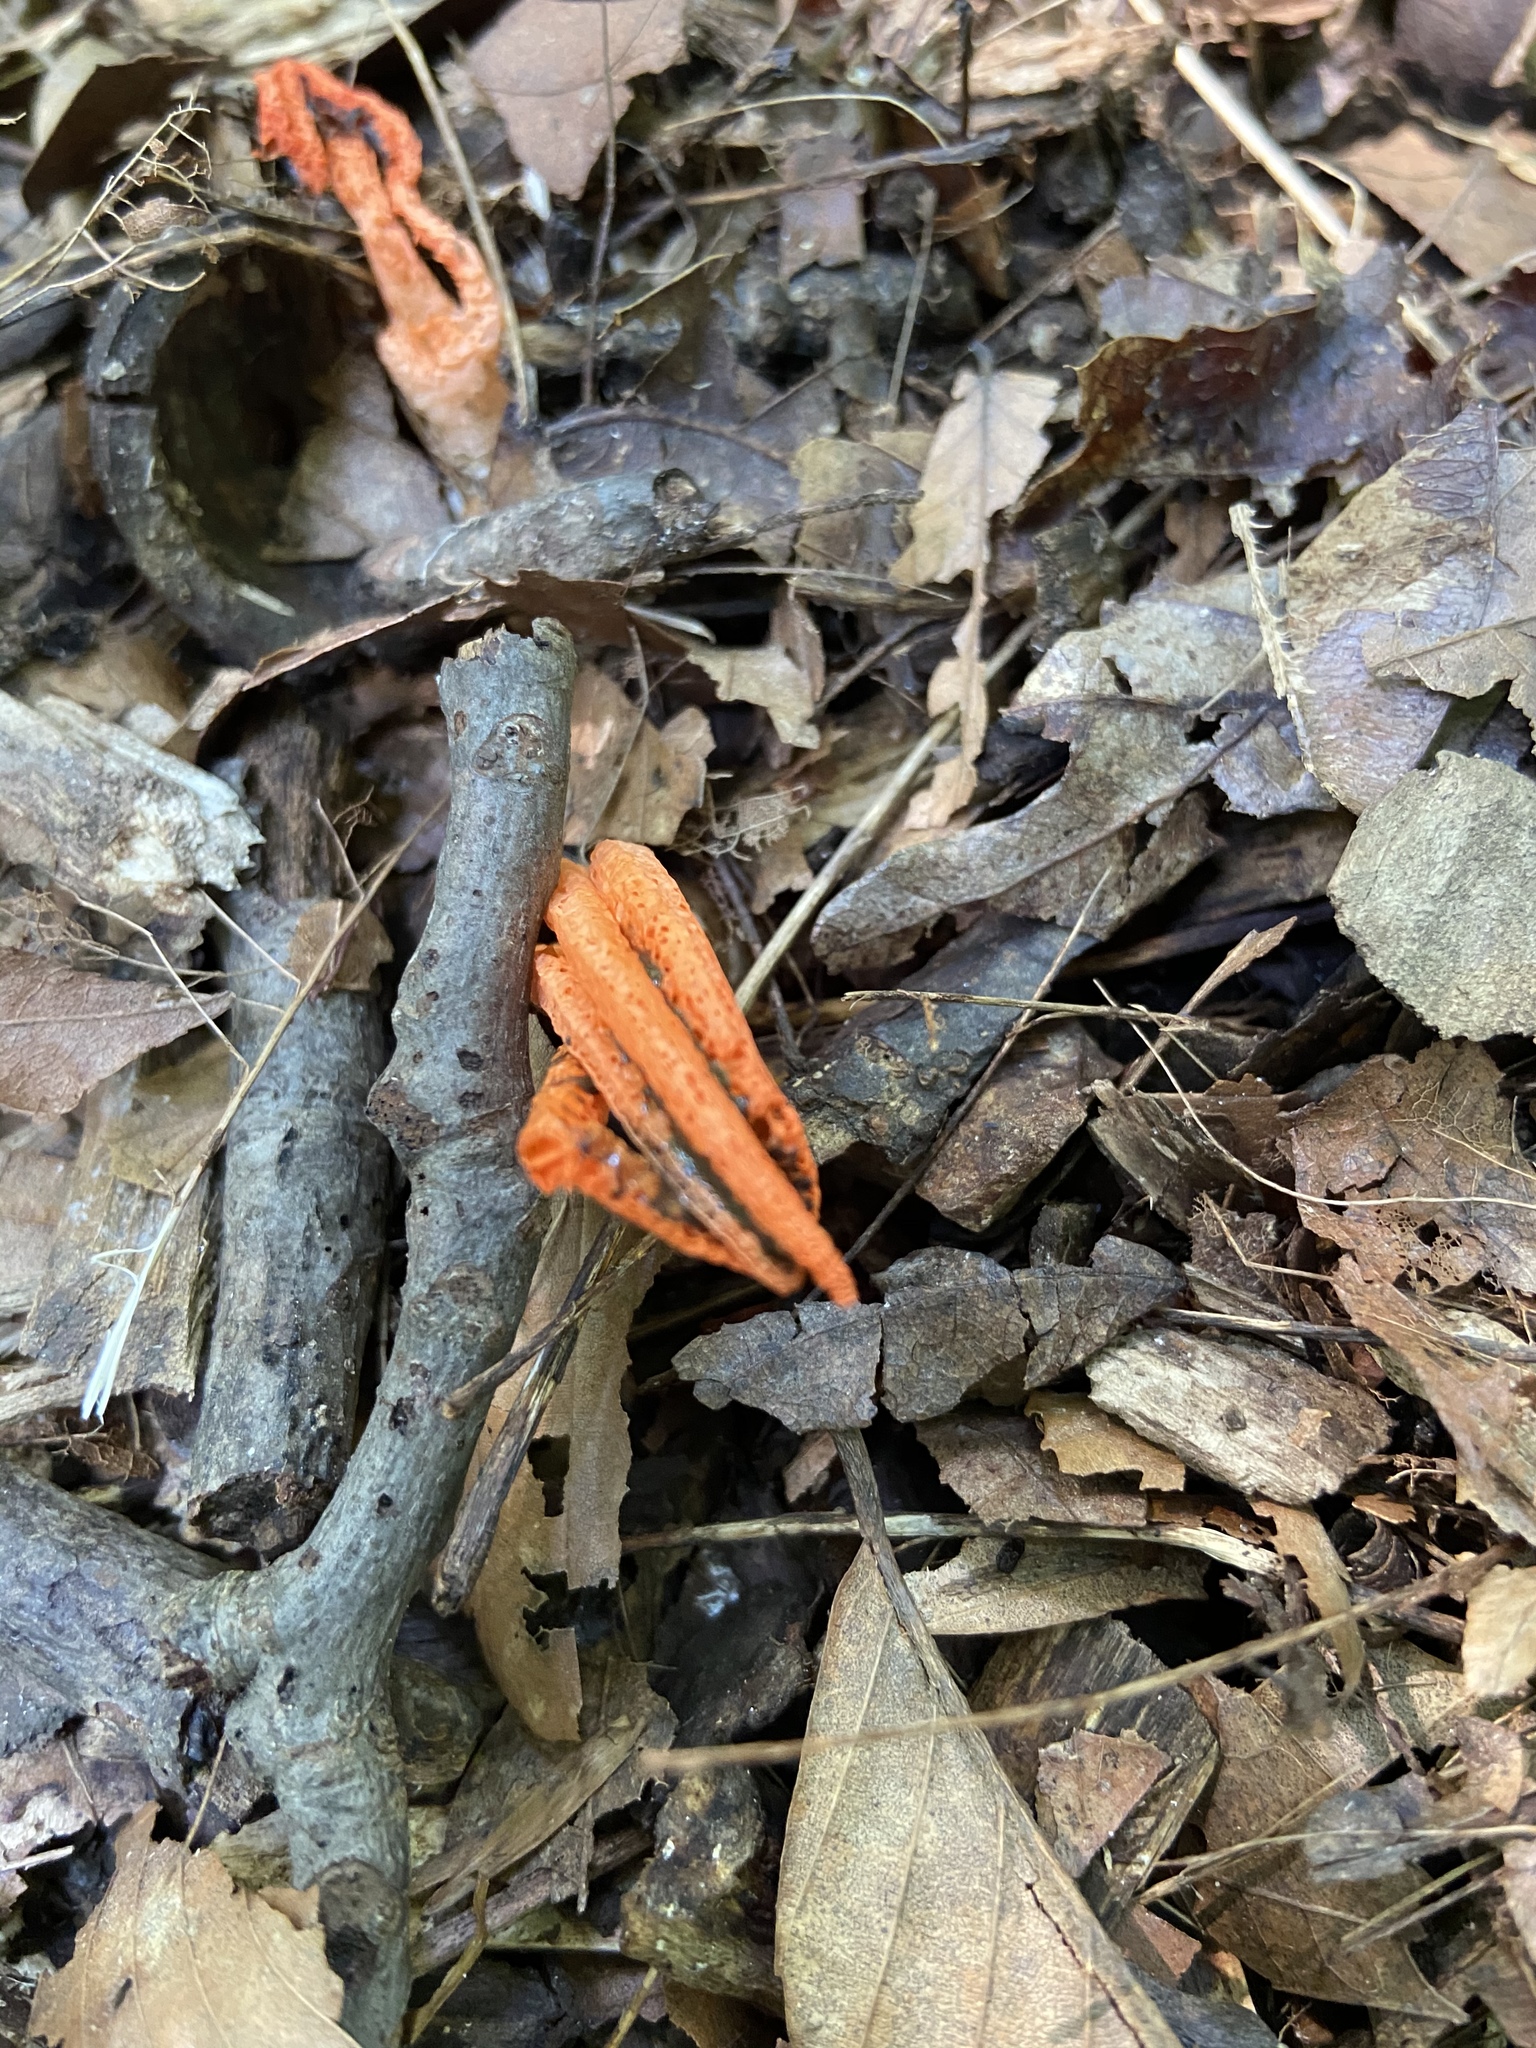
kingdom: Fungi
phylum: Basidiomycota
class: Agaricomycetes
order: Phallales
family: Phallaceae
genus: Pseudocolus
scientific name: Pseudocolus fusiformis
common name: Stinky squid
